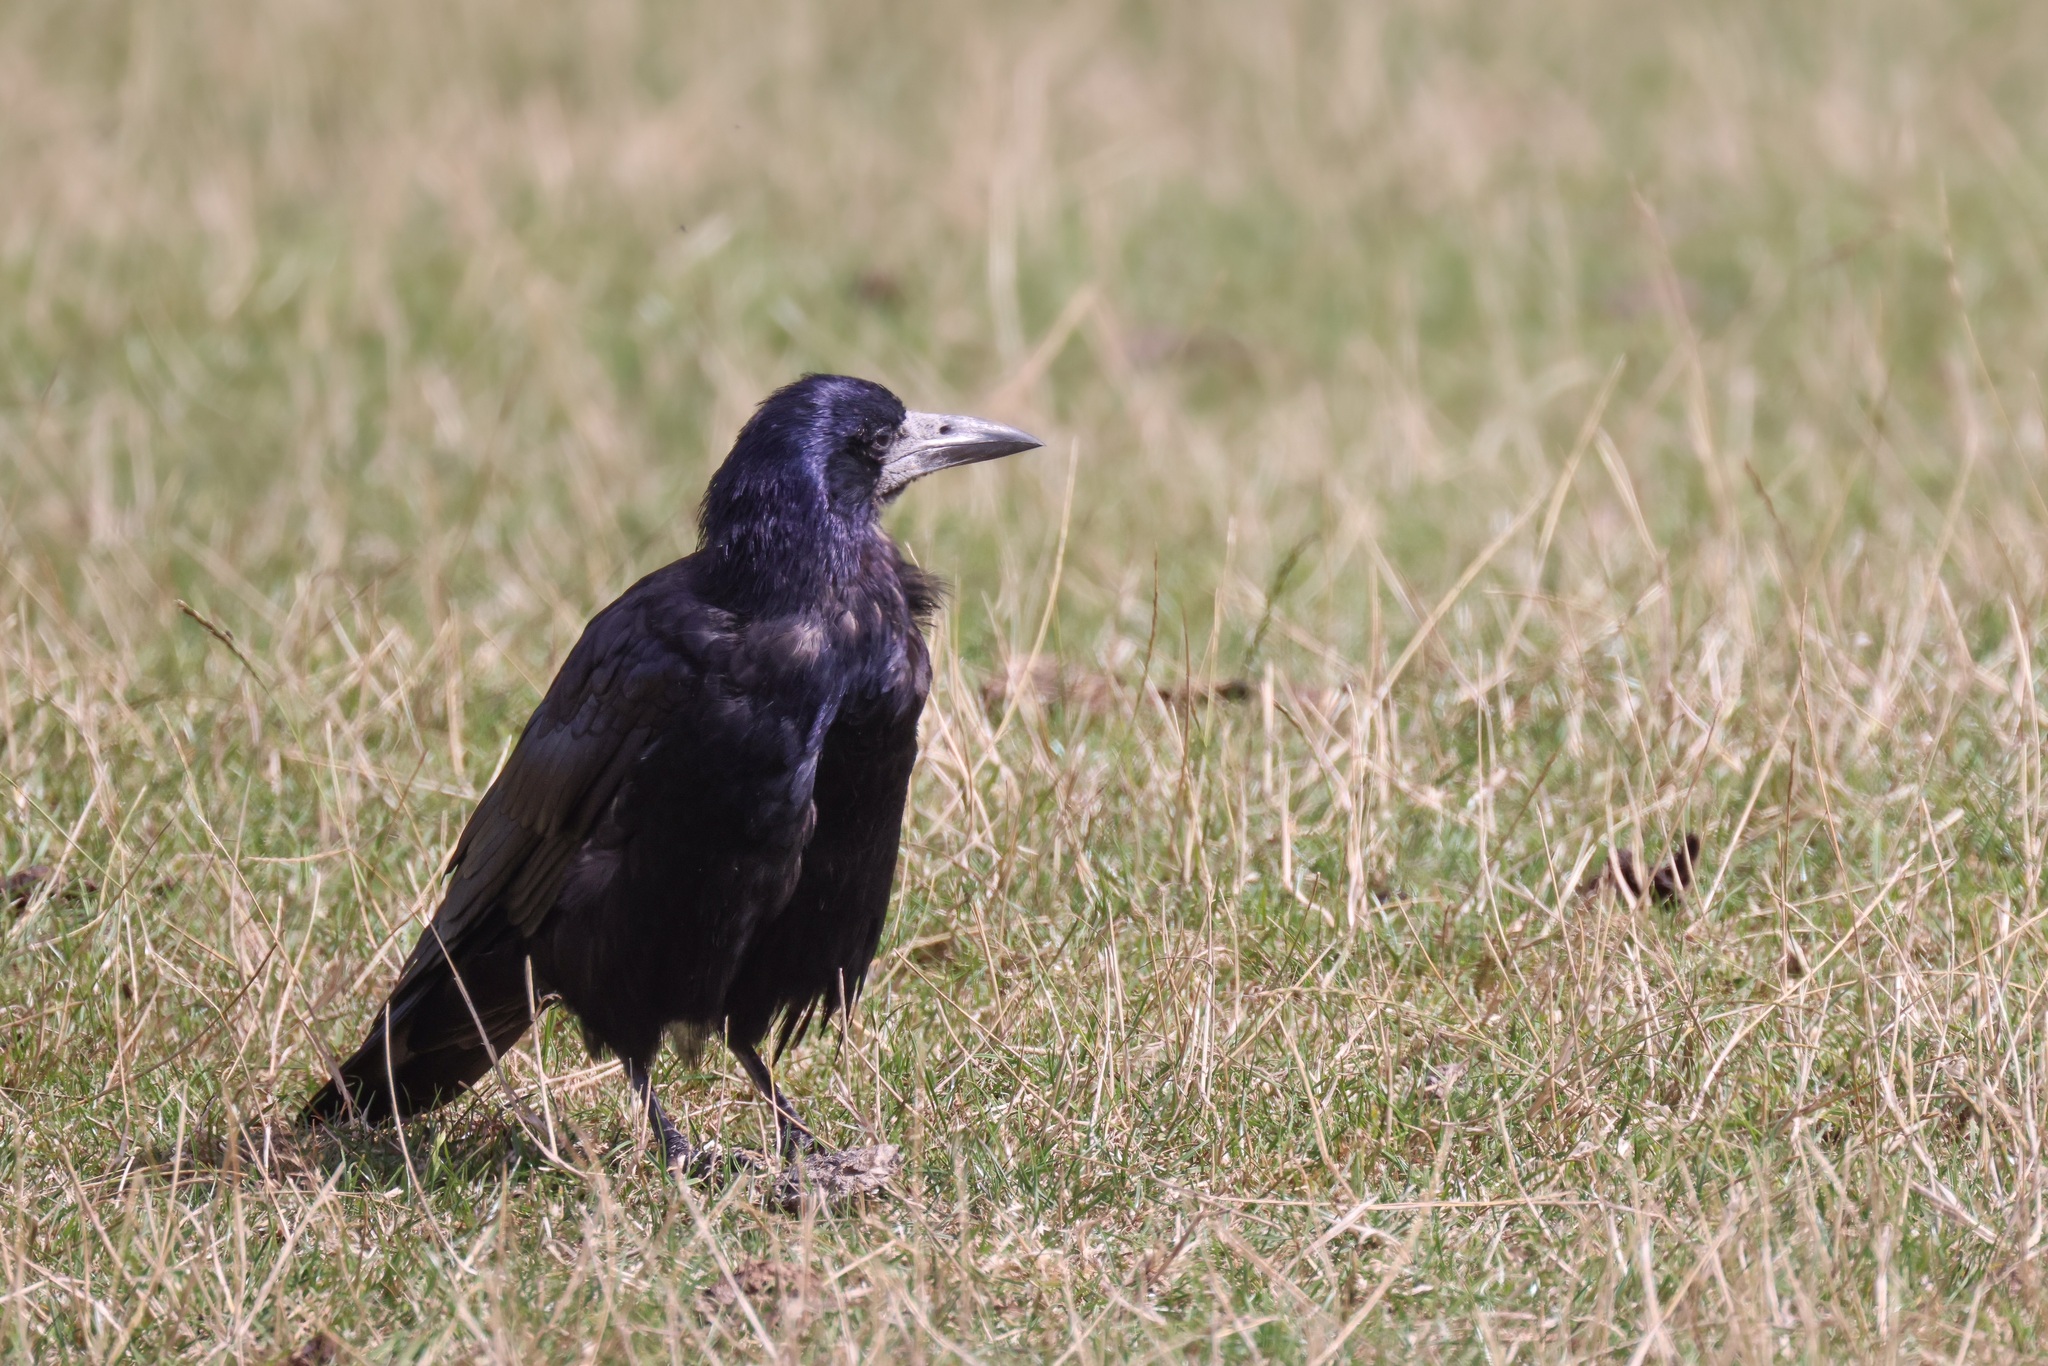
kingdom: Animalia
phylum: Chordata
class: Aves
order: Passeriformes
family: Corvidae
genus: Corvus
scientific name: Corvus frugilegus
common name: Rook
